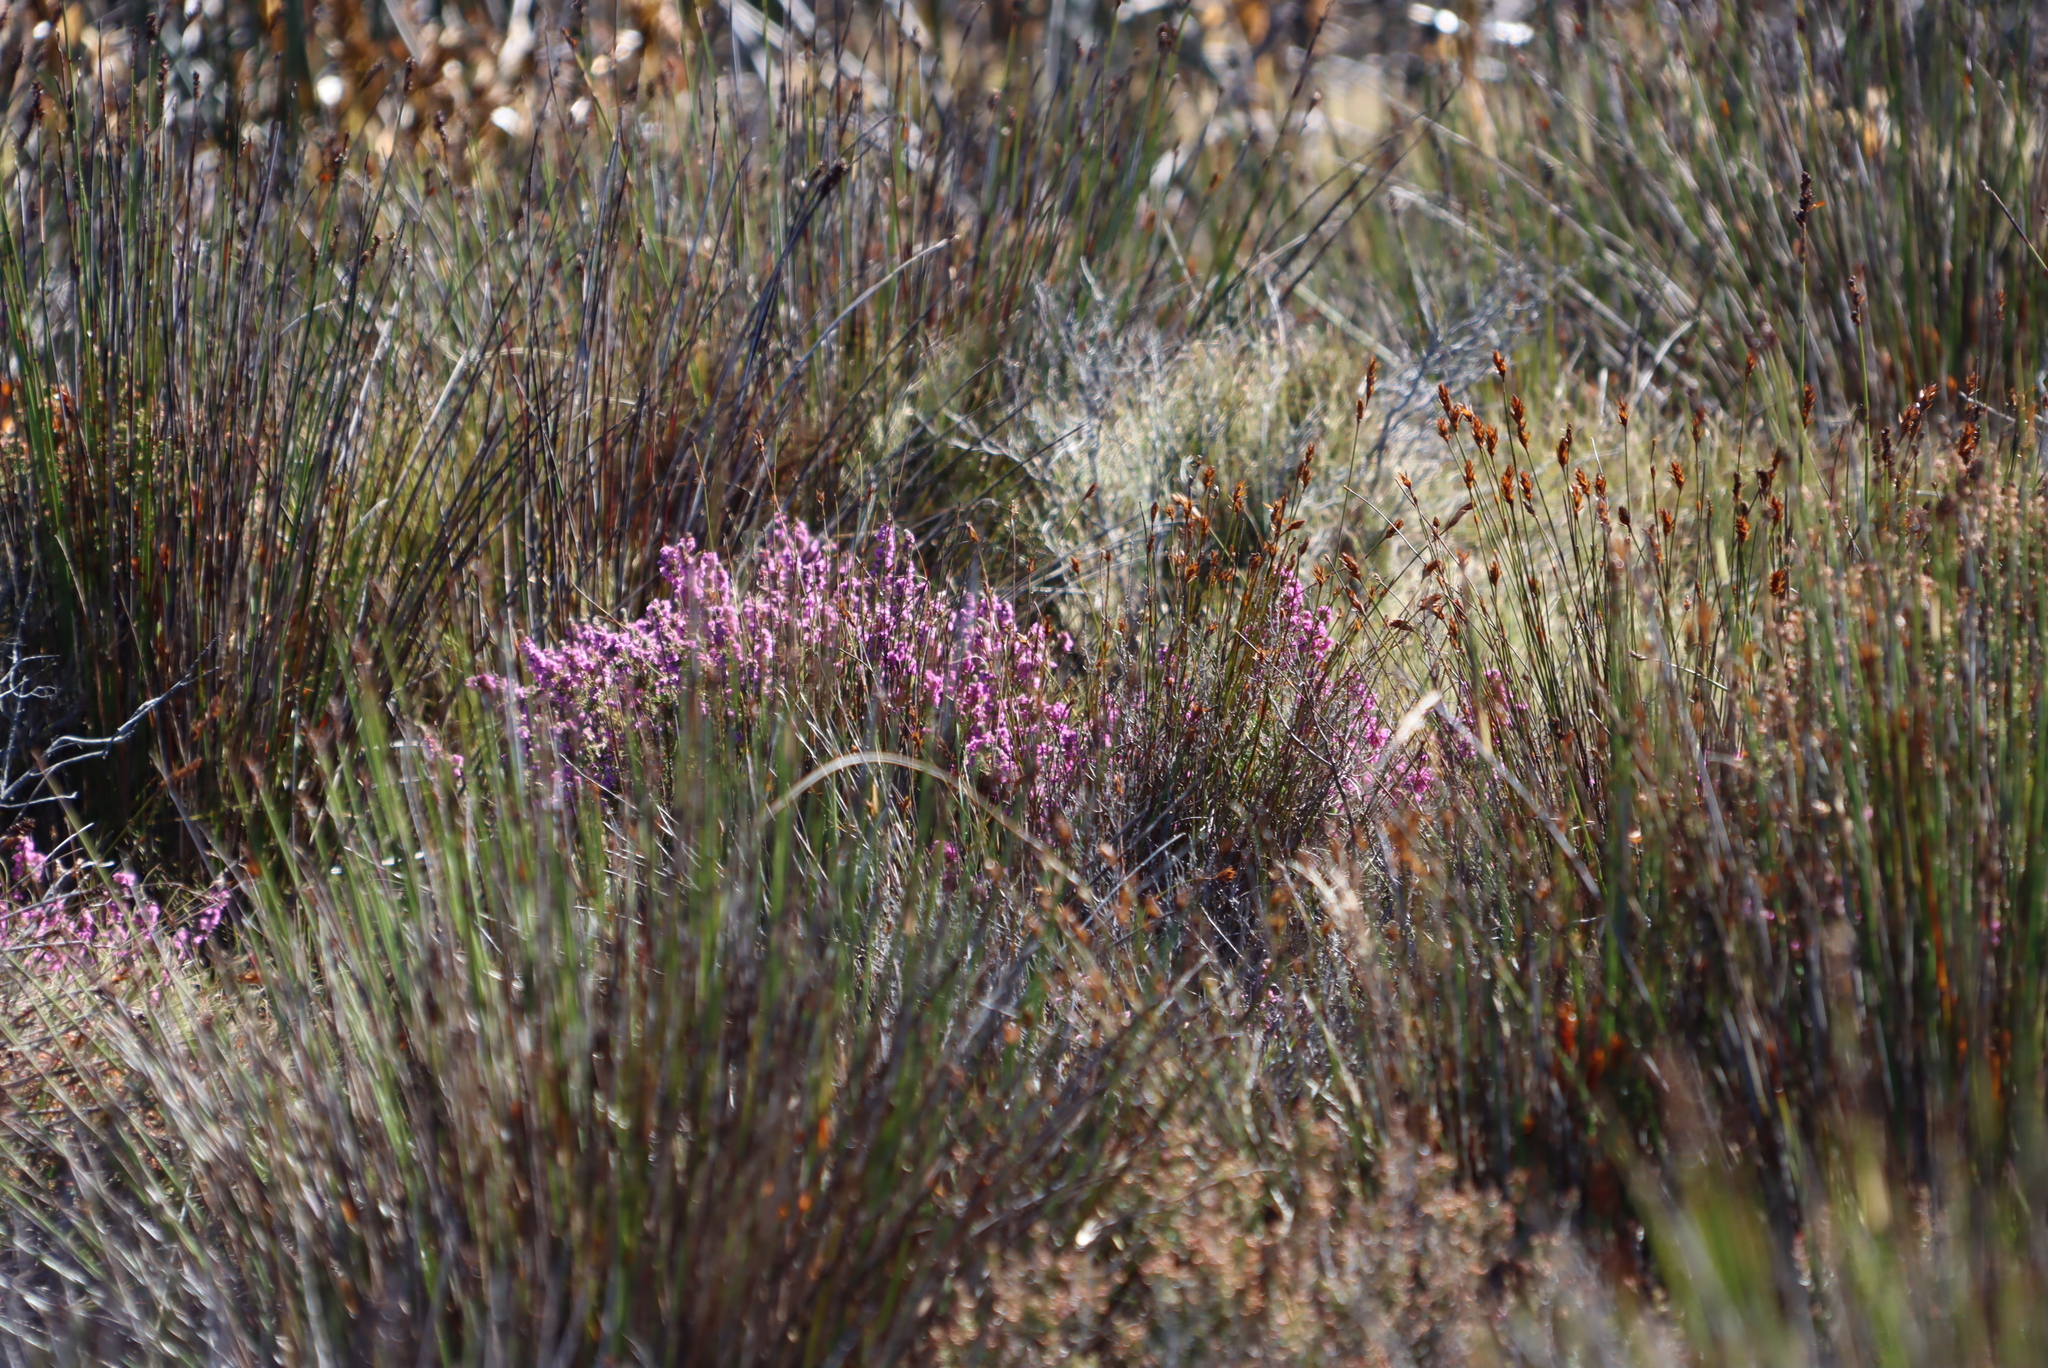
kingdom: Plantae
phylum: Tracheophyta
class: Magnoliopsida
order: Ericales
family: Ericaceae
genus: Erica
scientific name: Erica mollis
